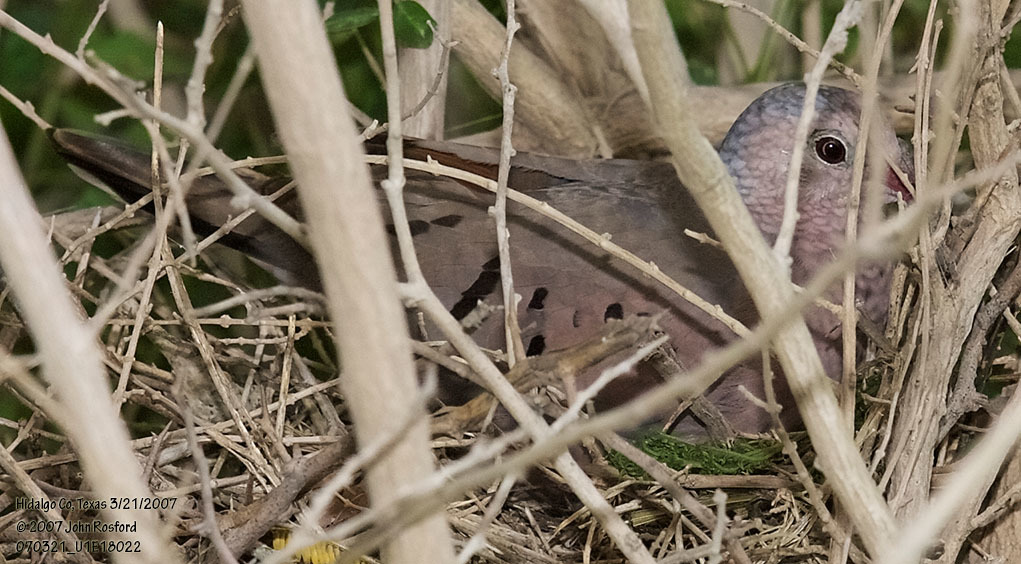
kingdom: Animalia
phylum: Chordata
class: Aves
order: Columbiformes
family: Columbidae
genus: Columbina
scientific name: Columbina passerina
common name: Common ground-dove
